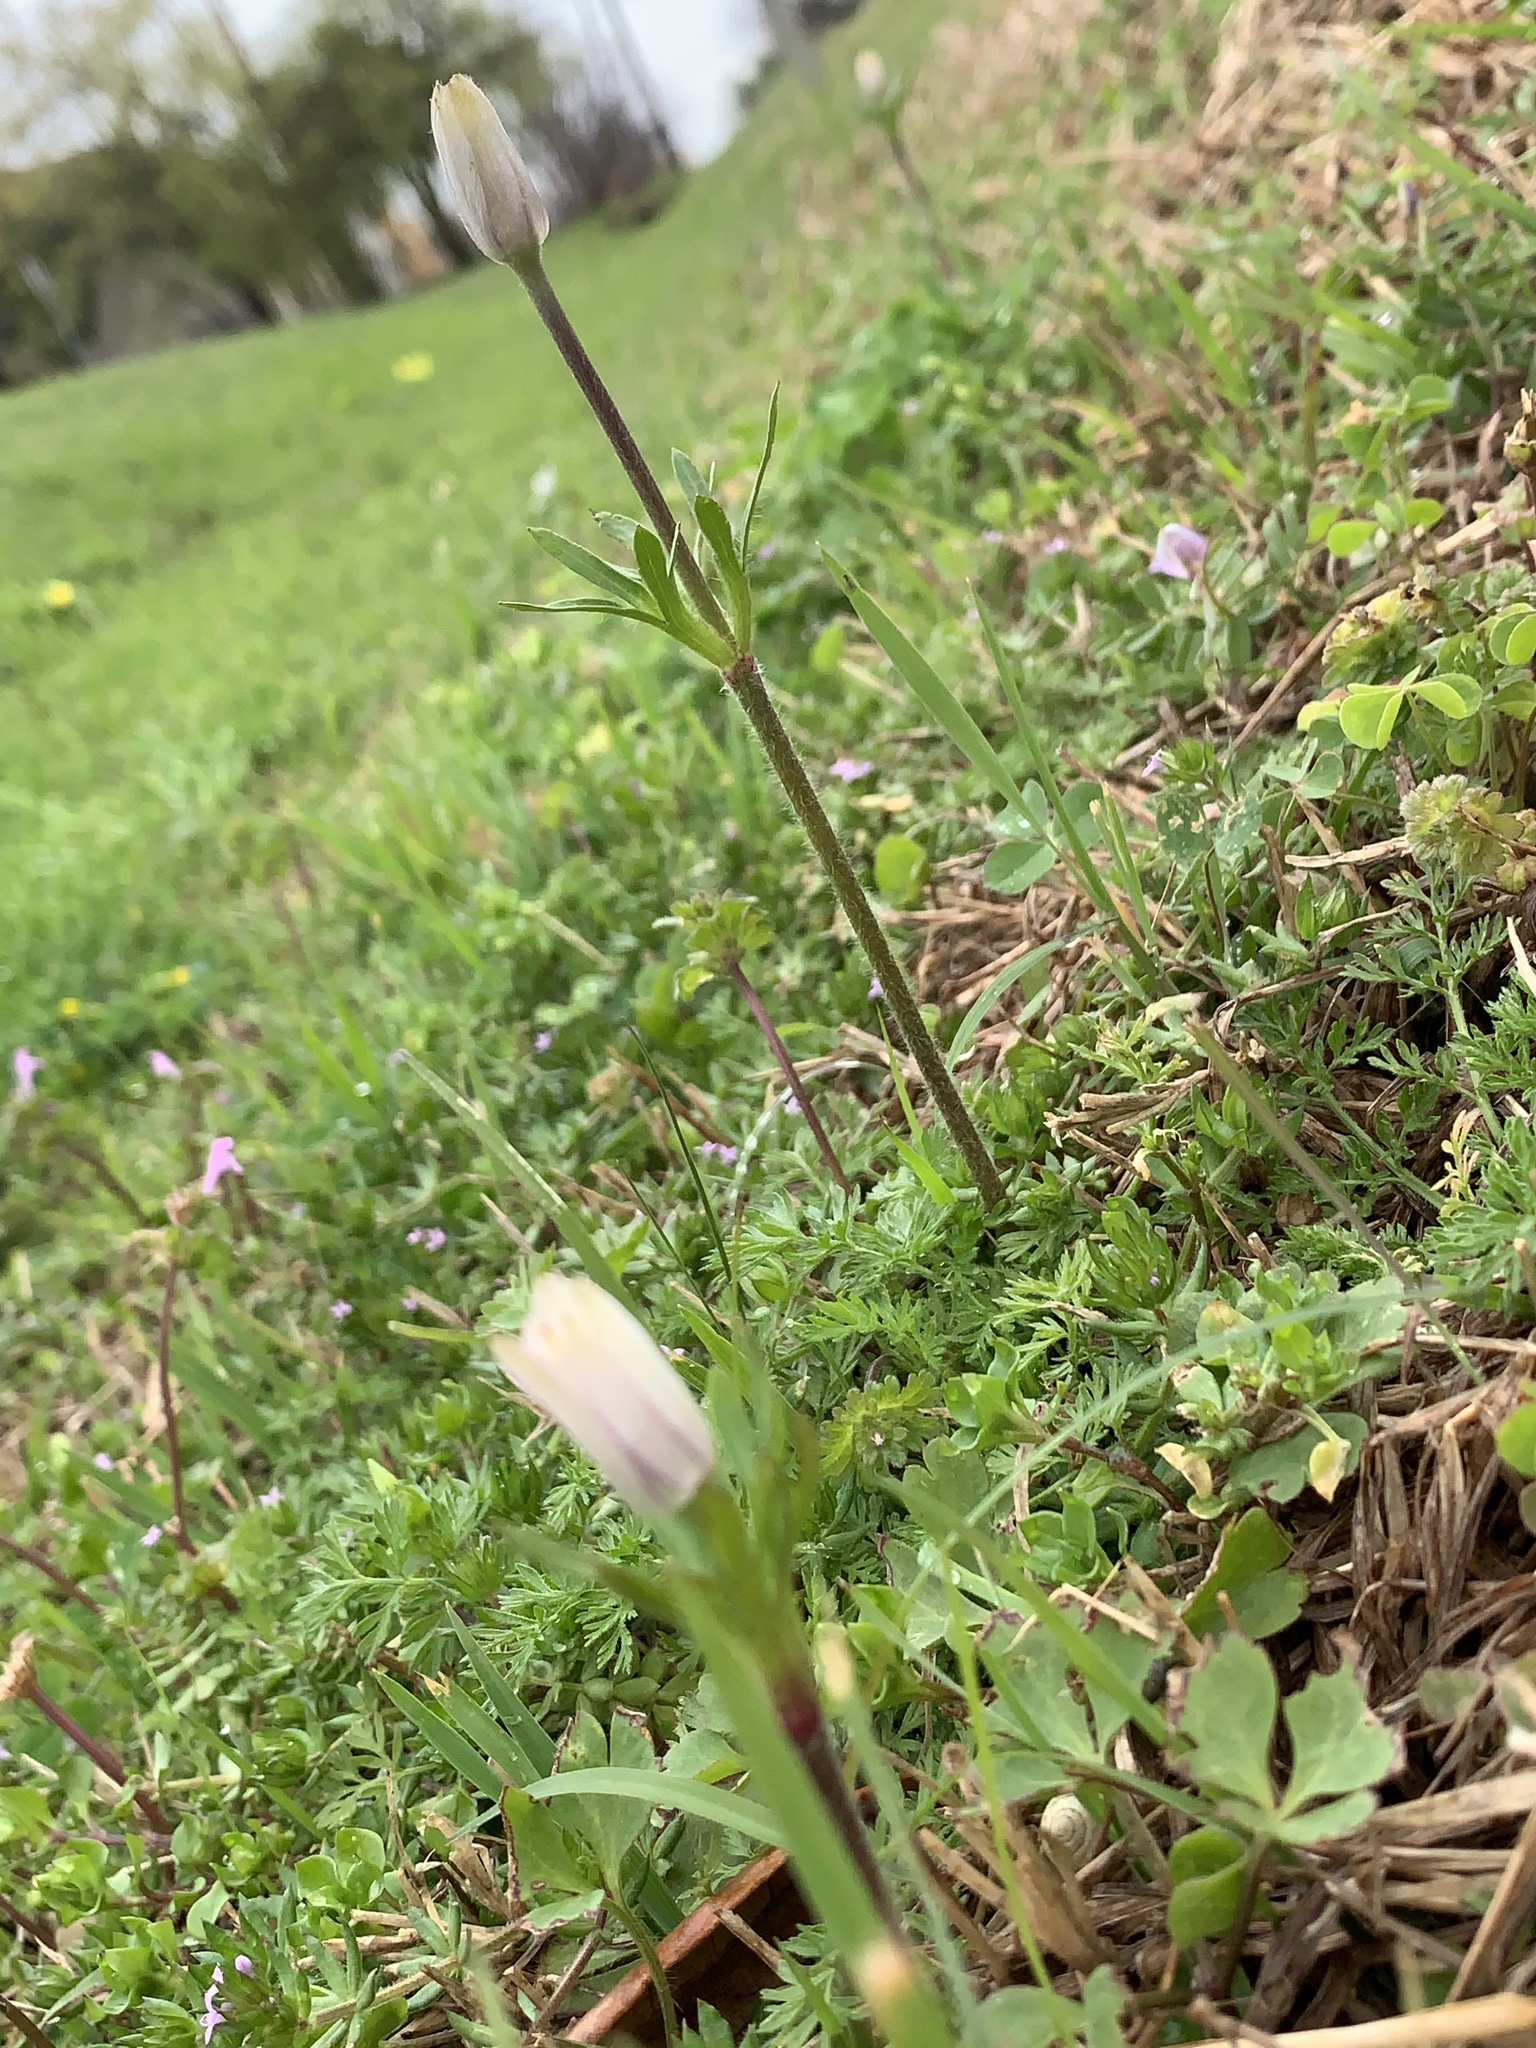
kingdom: Plantae
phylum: Tracheophyta
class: Magnoliopsida
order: Ranunculales
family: Ranunculaceae
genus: Anemone
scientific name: Anemone berlandieri
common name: Ten-petal anemone
